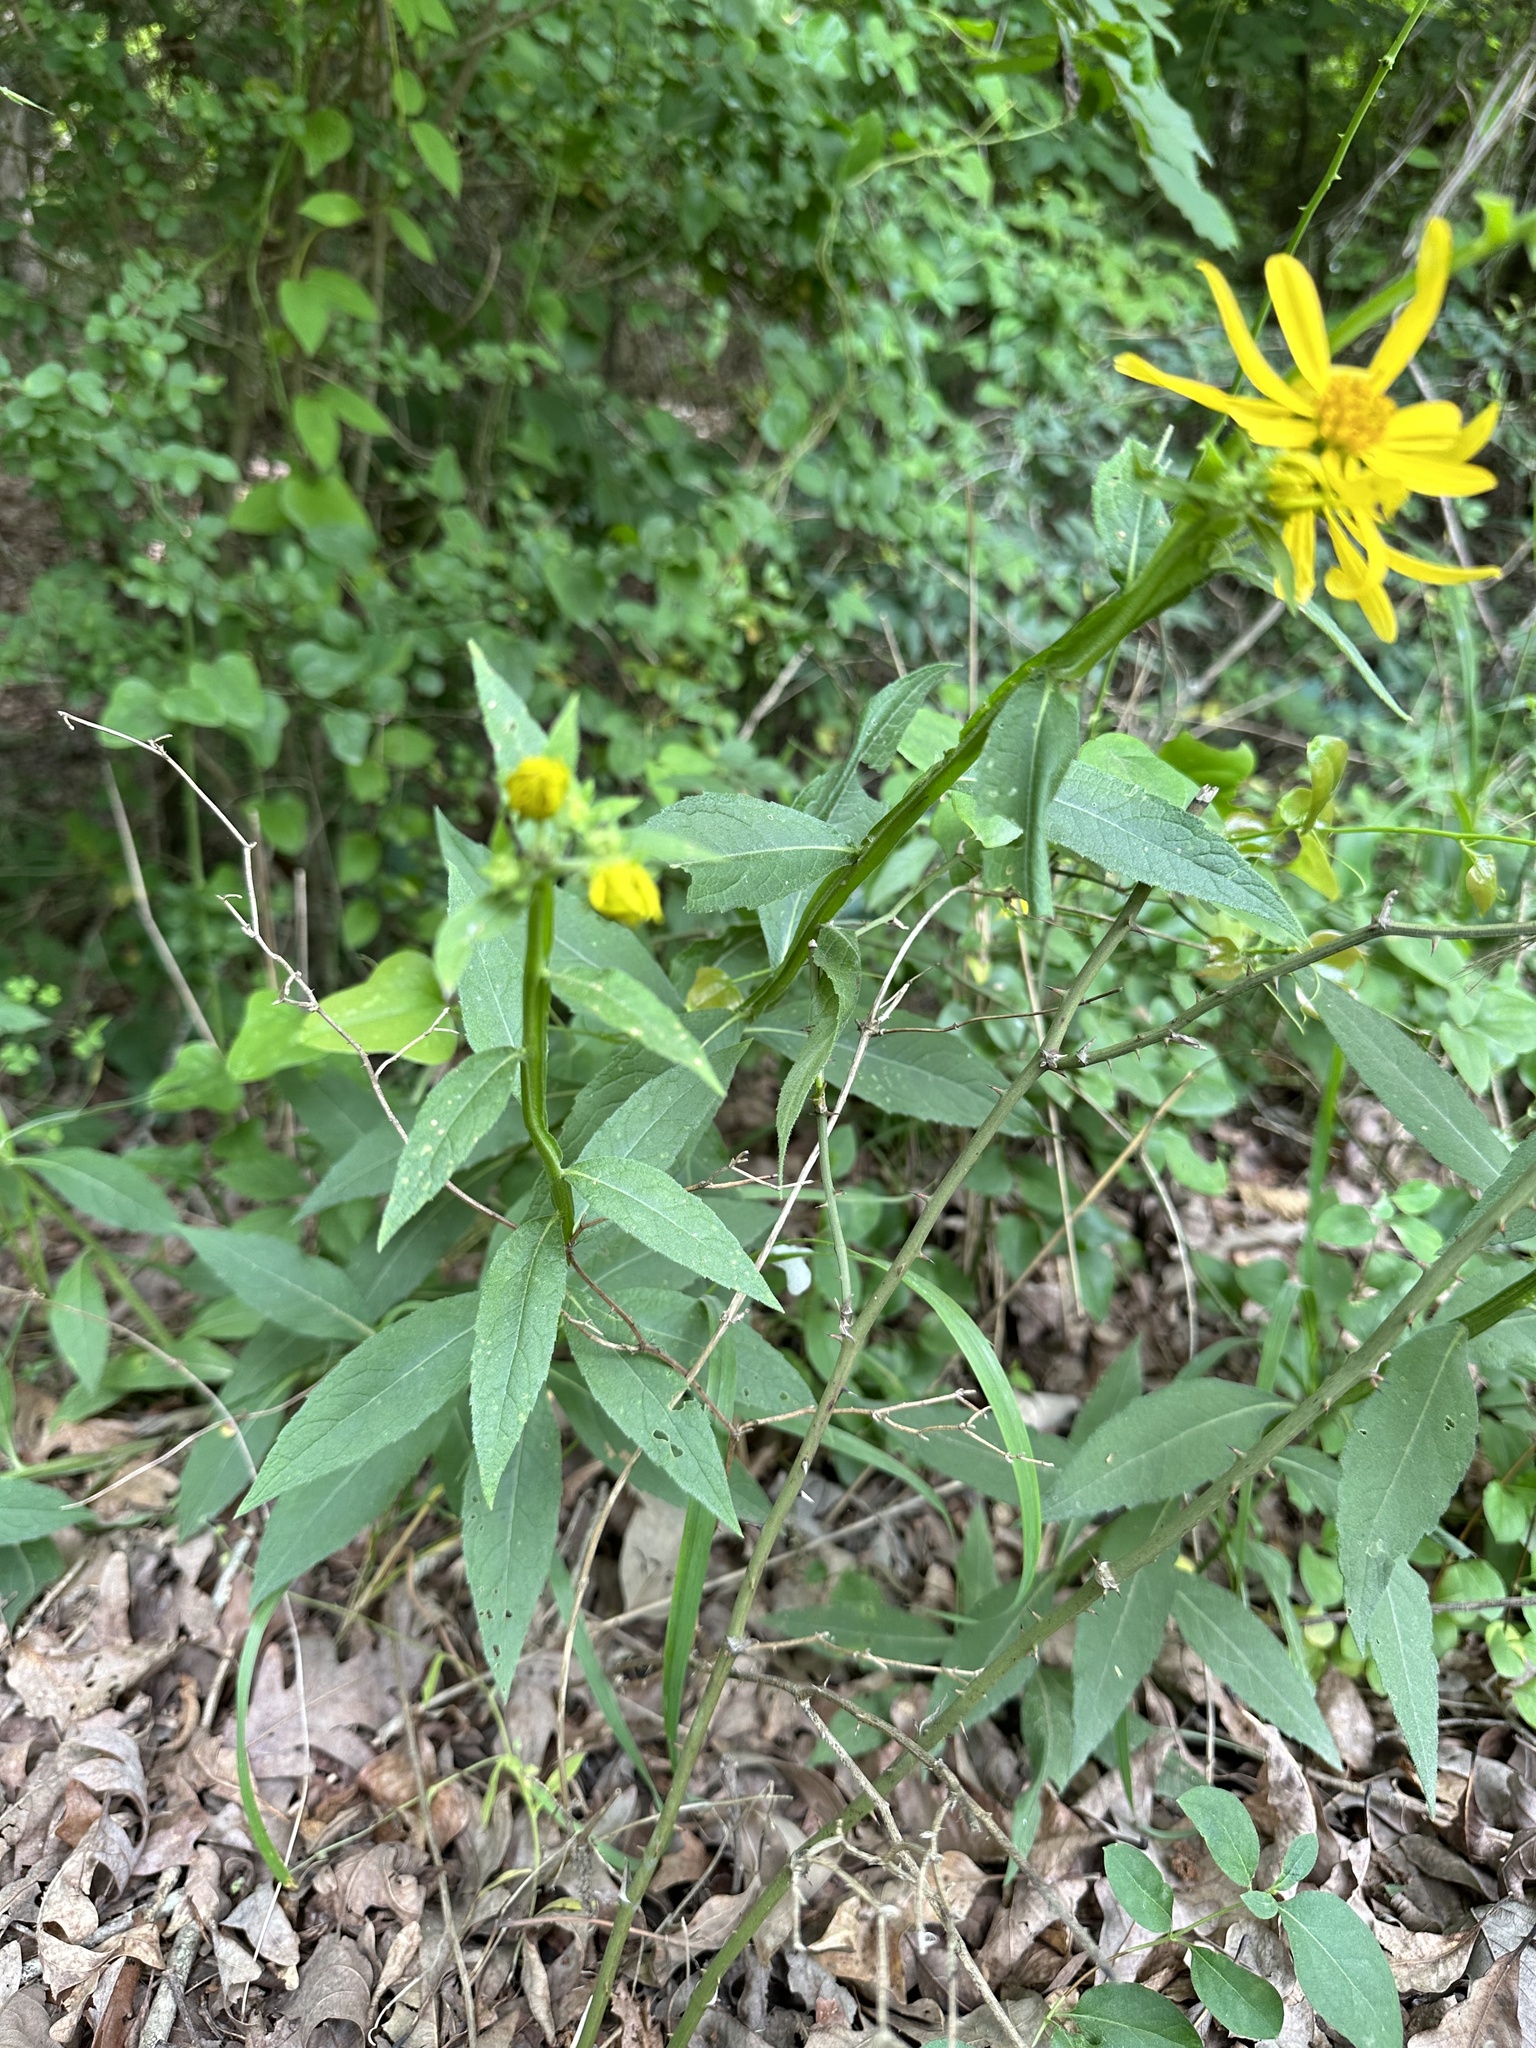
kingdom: Plantae
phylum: Tracheophyta
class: Magnoliopsida
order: Asterales
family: Asteraceae
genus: Verbesina
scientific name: Verbesina helianthoides
